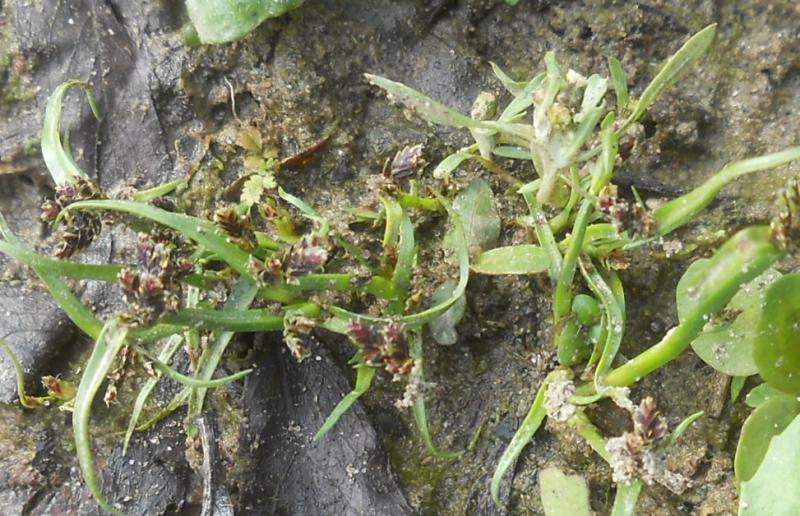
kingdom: Plantae
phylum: Tracheophyta
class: Liliopsida
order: Poales
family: Cyperaceae
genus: Cyperus
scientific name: Cyperus fuscus
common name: Brown galingale
